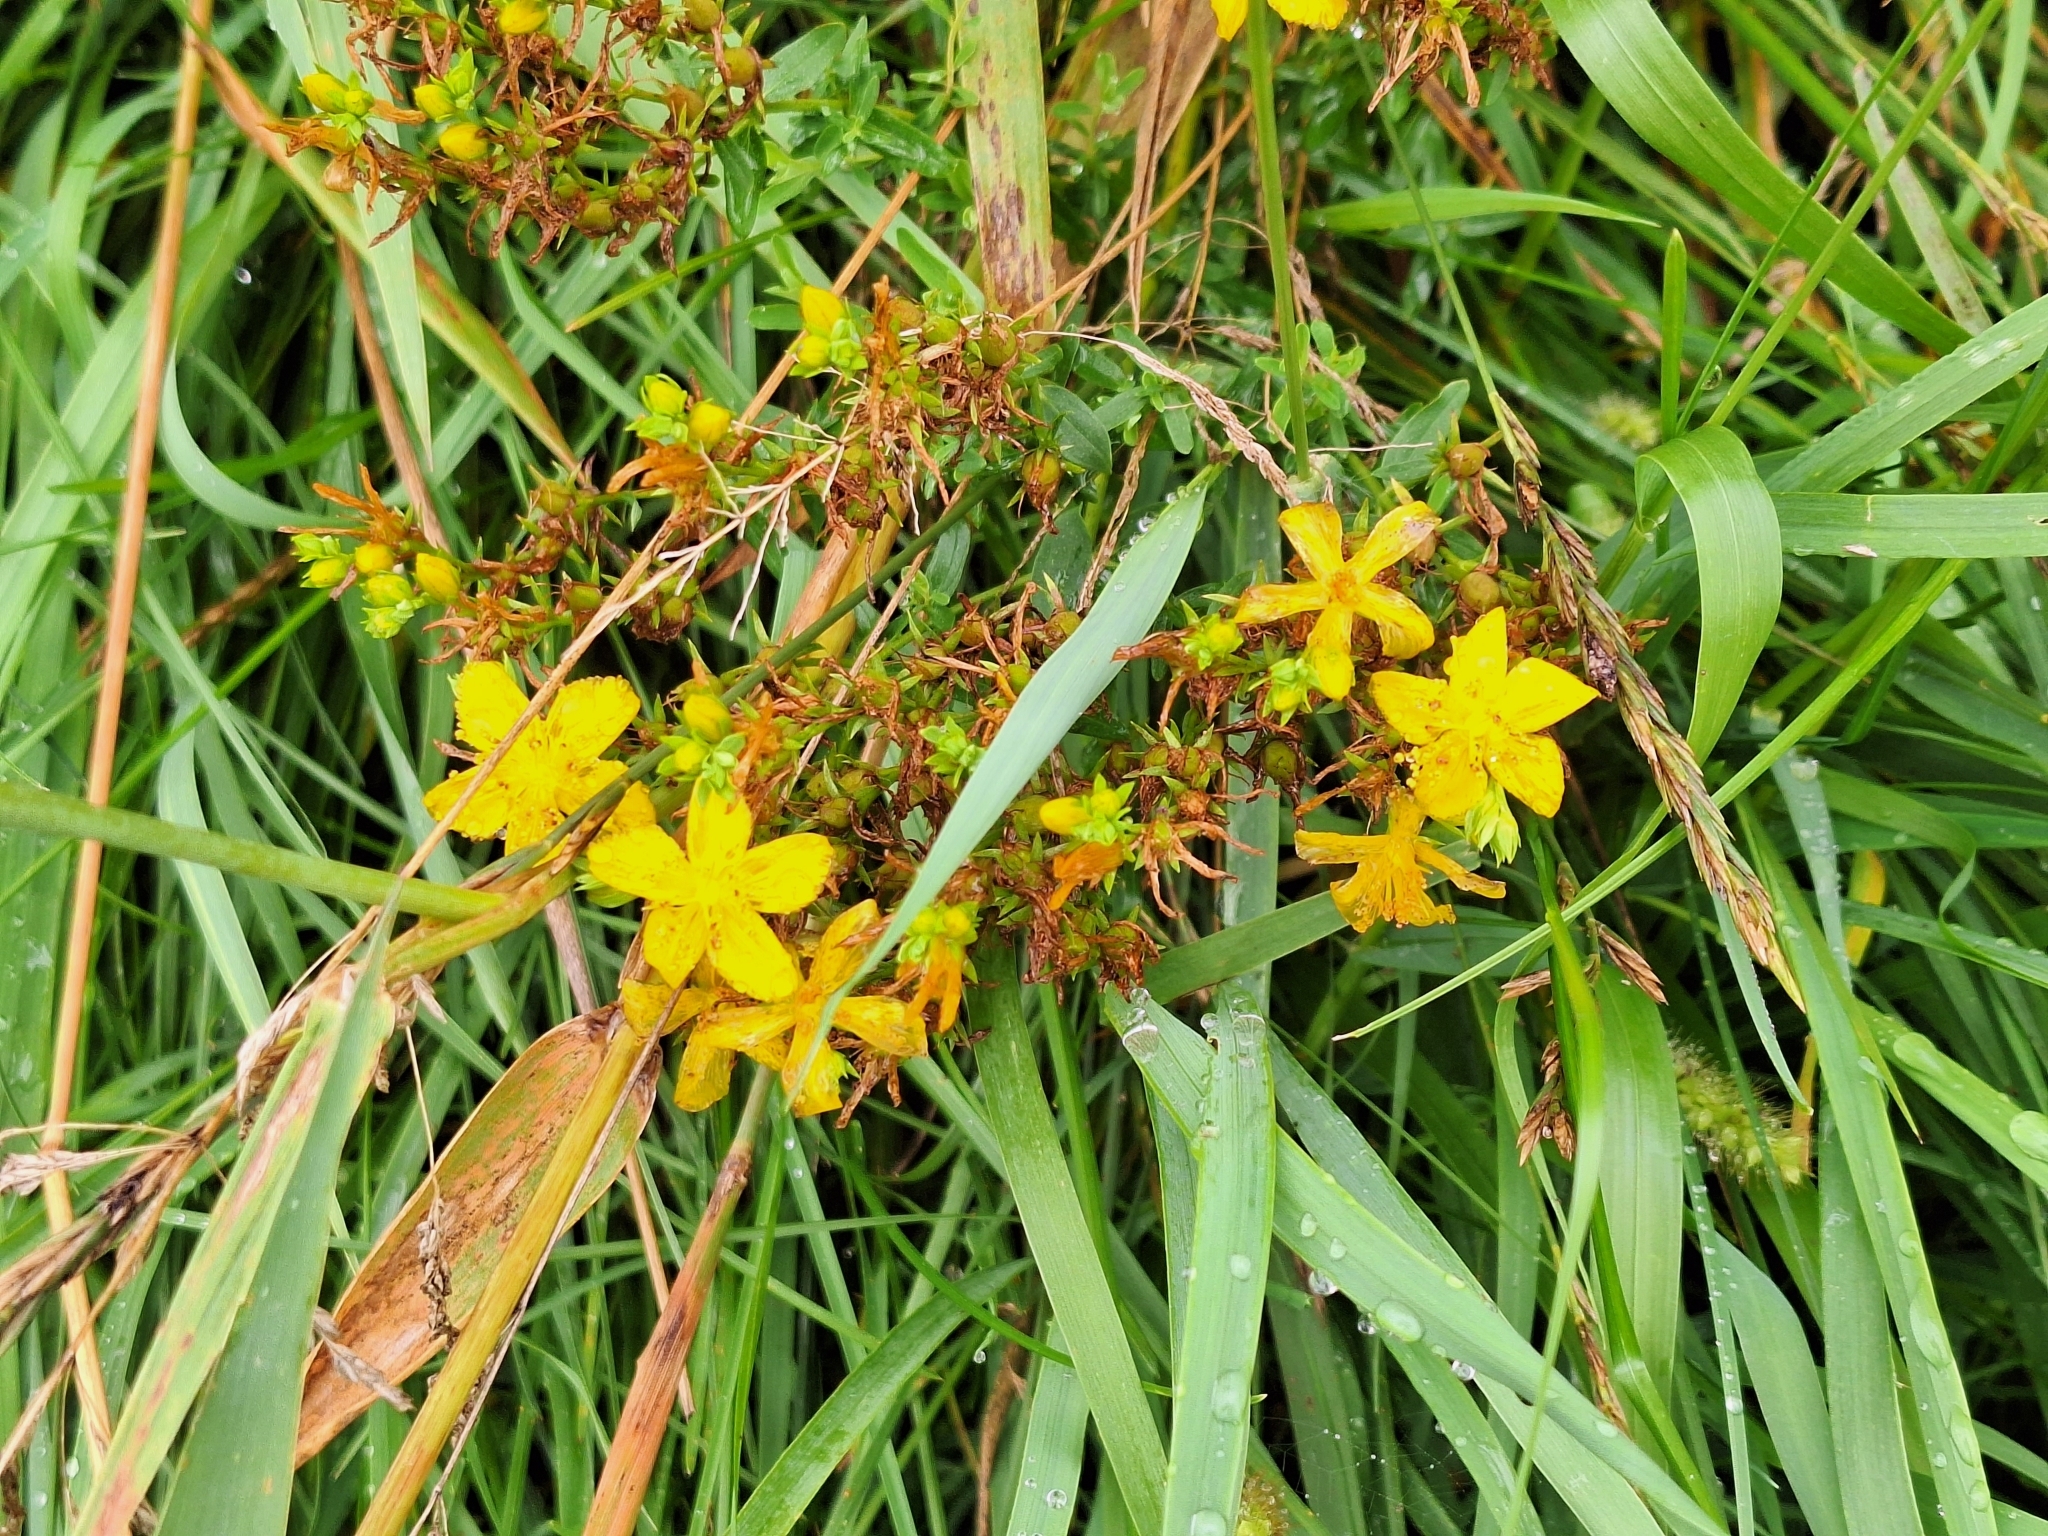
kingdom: Plantae
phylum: Tracheophyta
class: Magnoliopsida
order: Malpighiales
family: Hypericaceae
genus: Hypericum
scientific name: Hypericum perforatum
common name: Common st. johnswort
